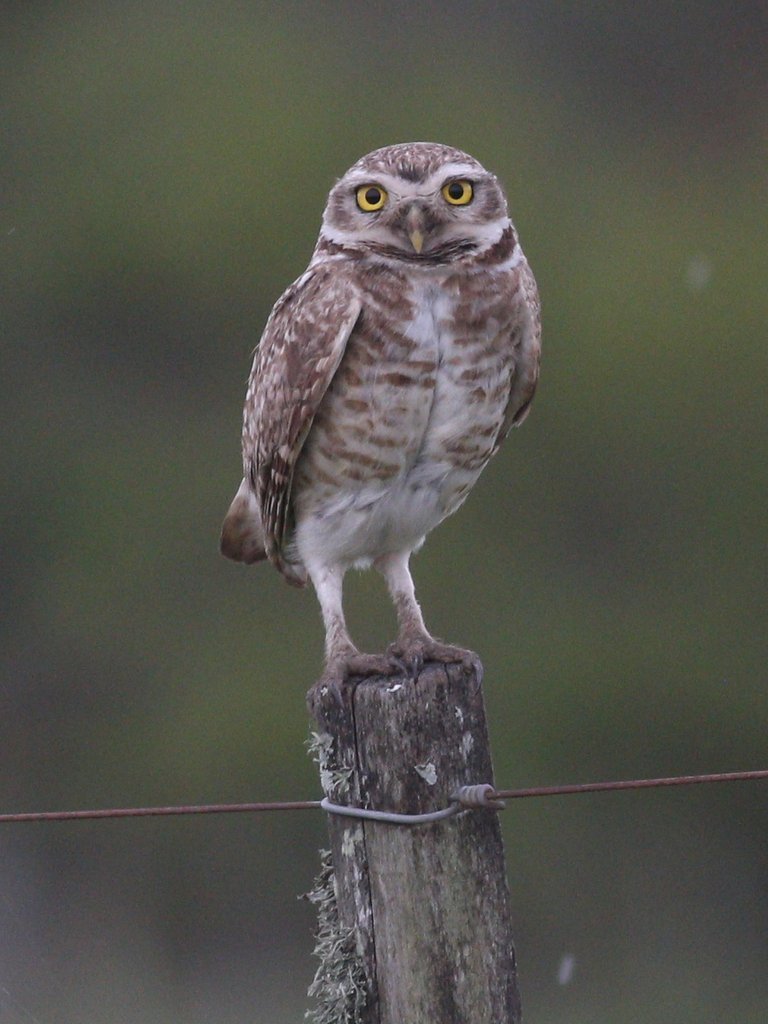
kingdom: Animalia
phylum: Chordata
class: Aves
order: Strigiformes
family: Strigidae
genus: Athene
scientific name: Athene cunicularia
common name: Burrowing owl
